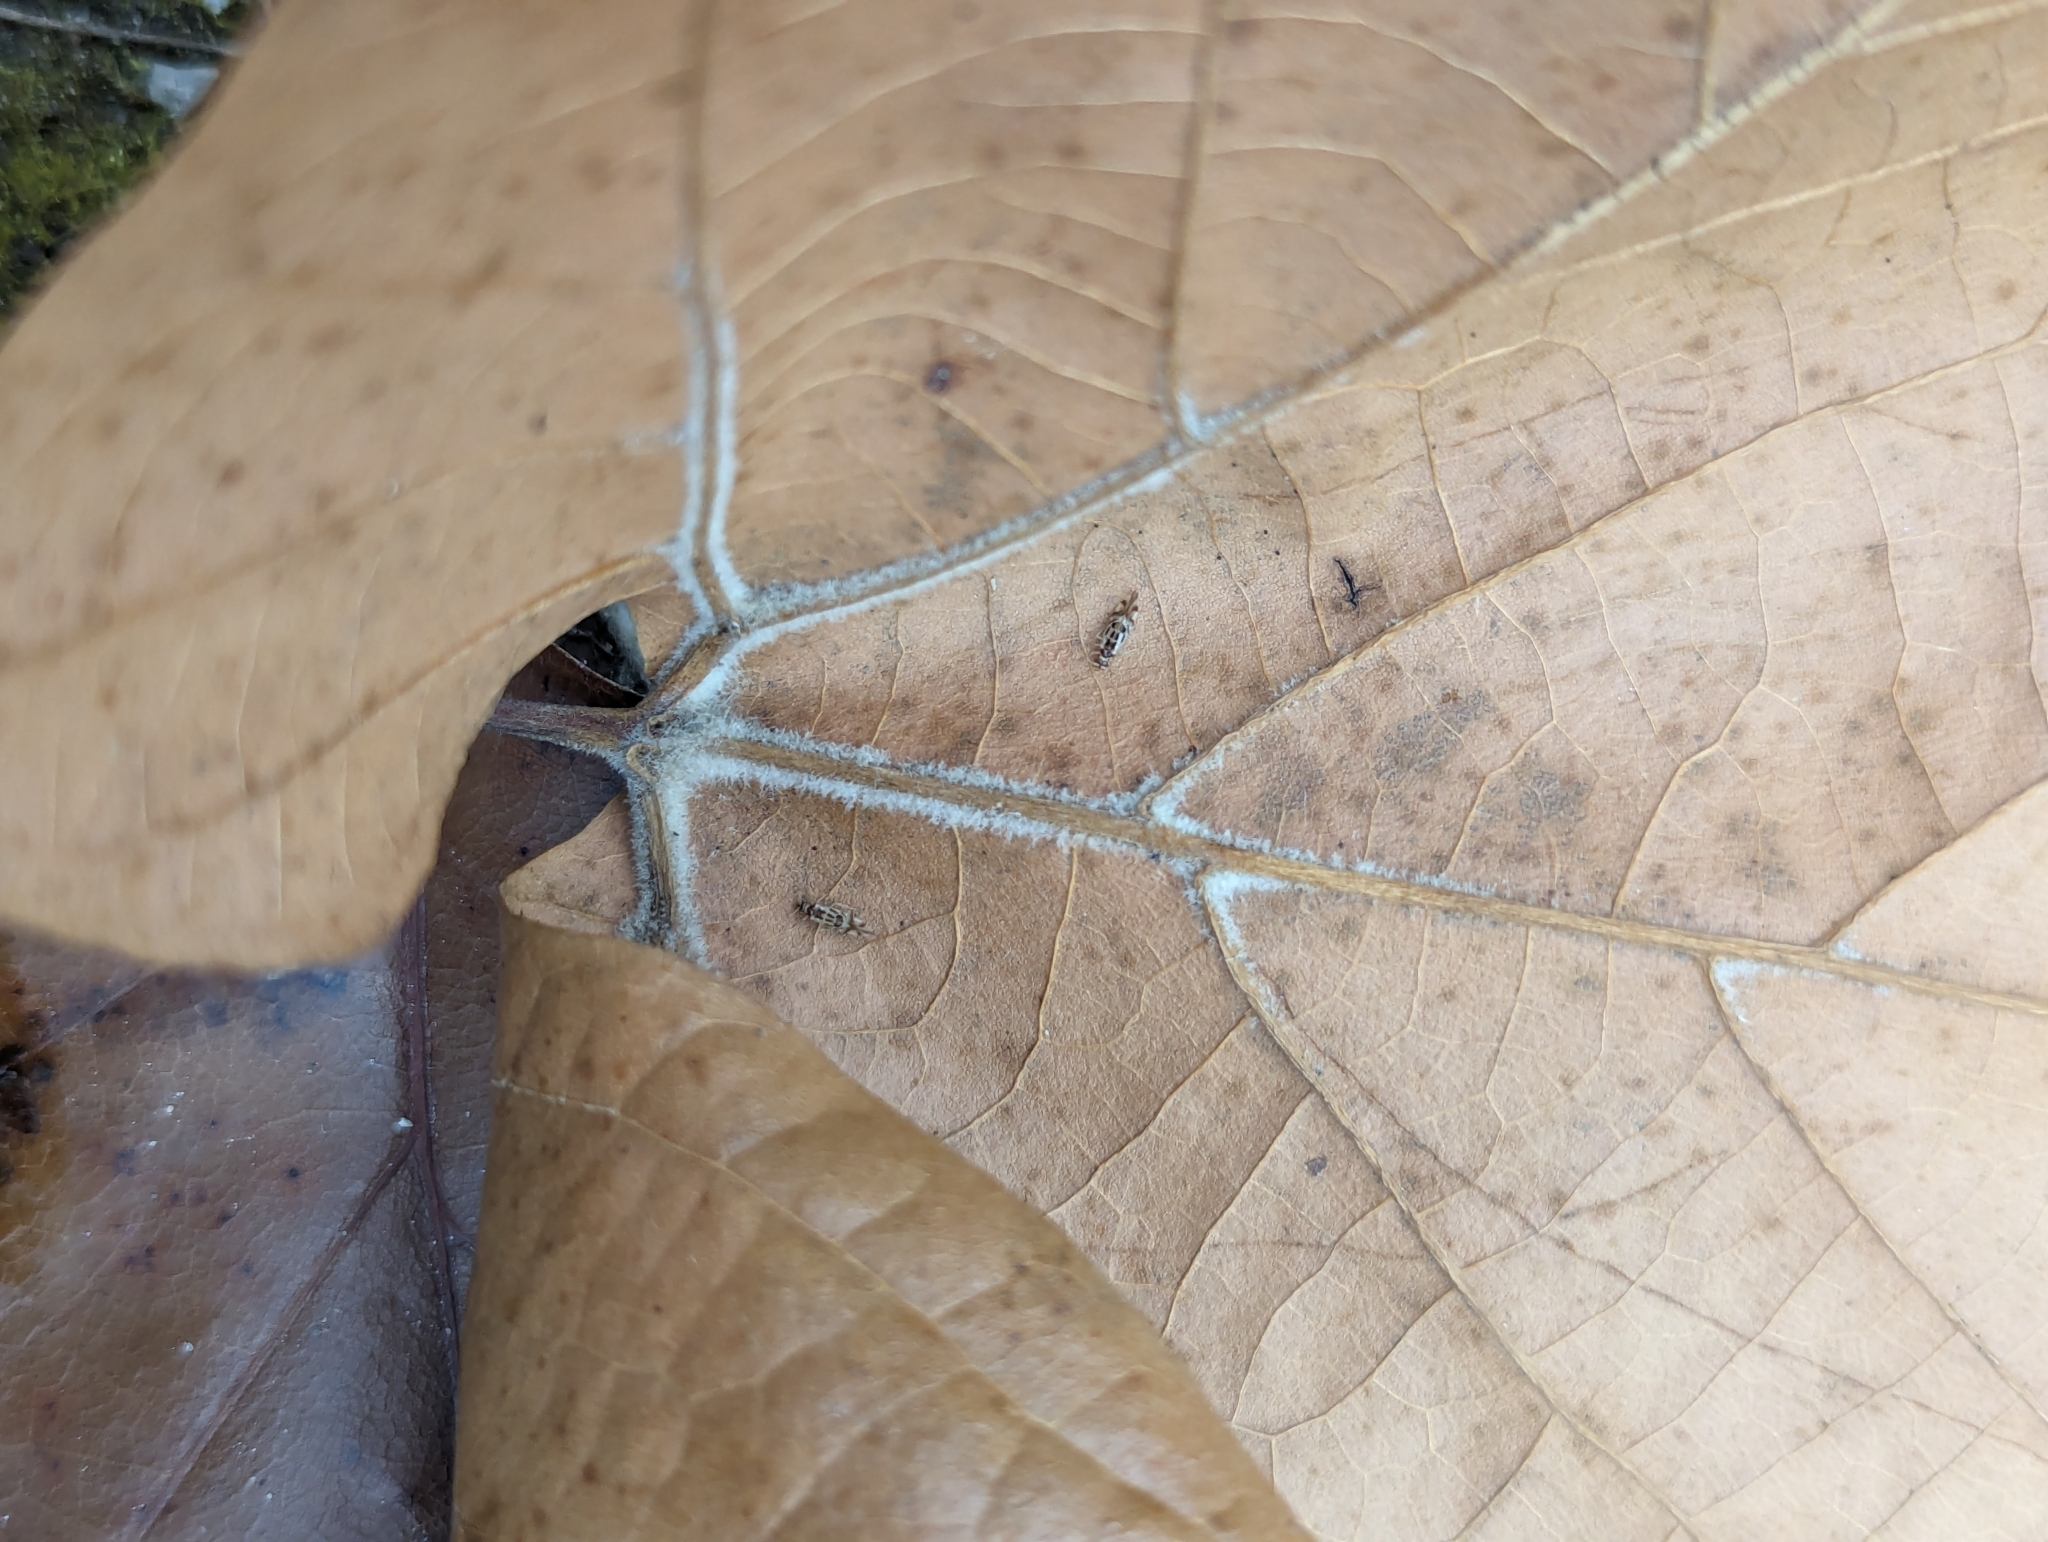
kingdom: Animalia
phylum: Arthropoda
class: Insecta
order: Psocodea
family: Stenopsocidae
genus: Graphopsocus
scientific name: Graphopsocus cruciatus
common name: Lizard bark louse
